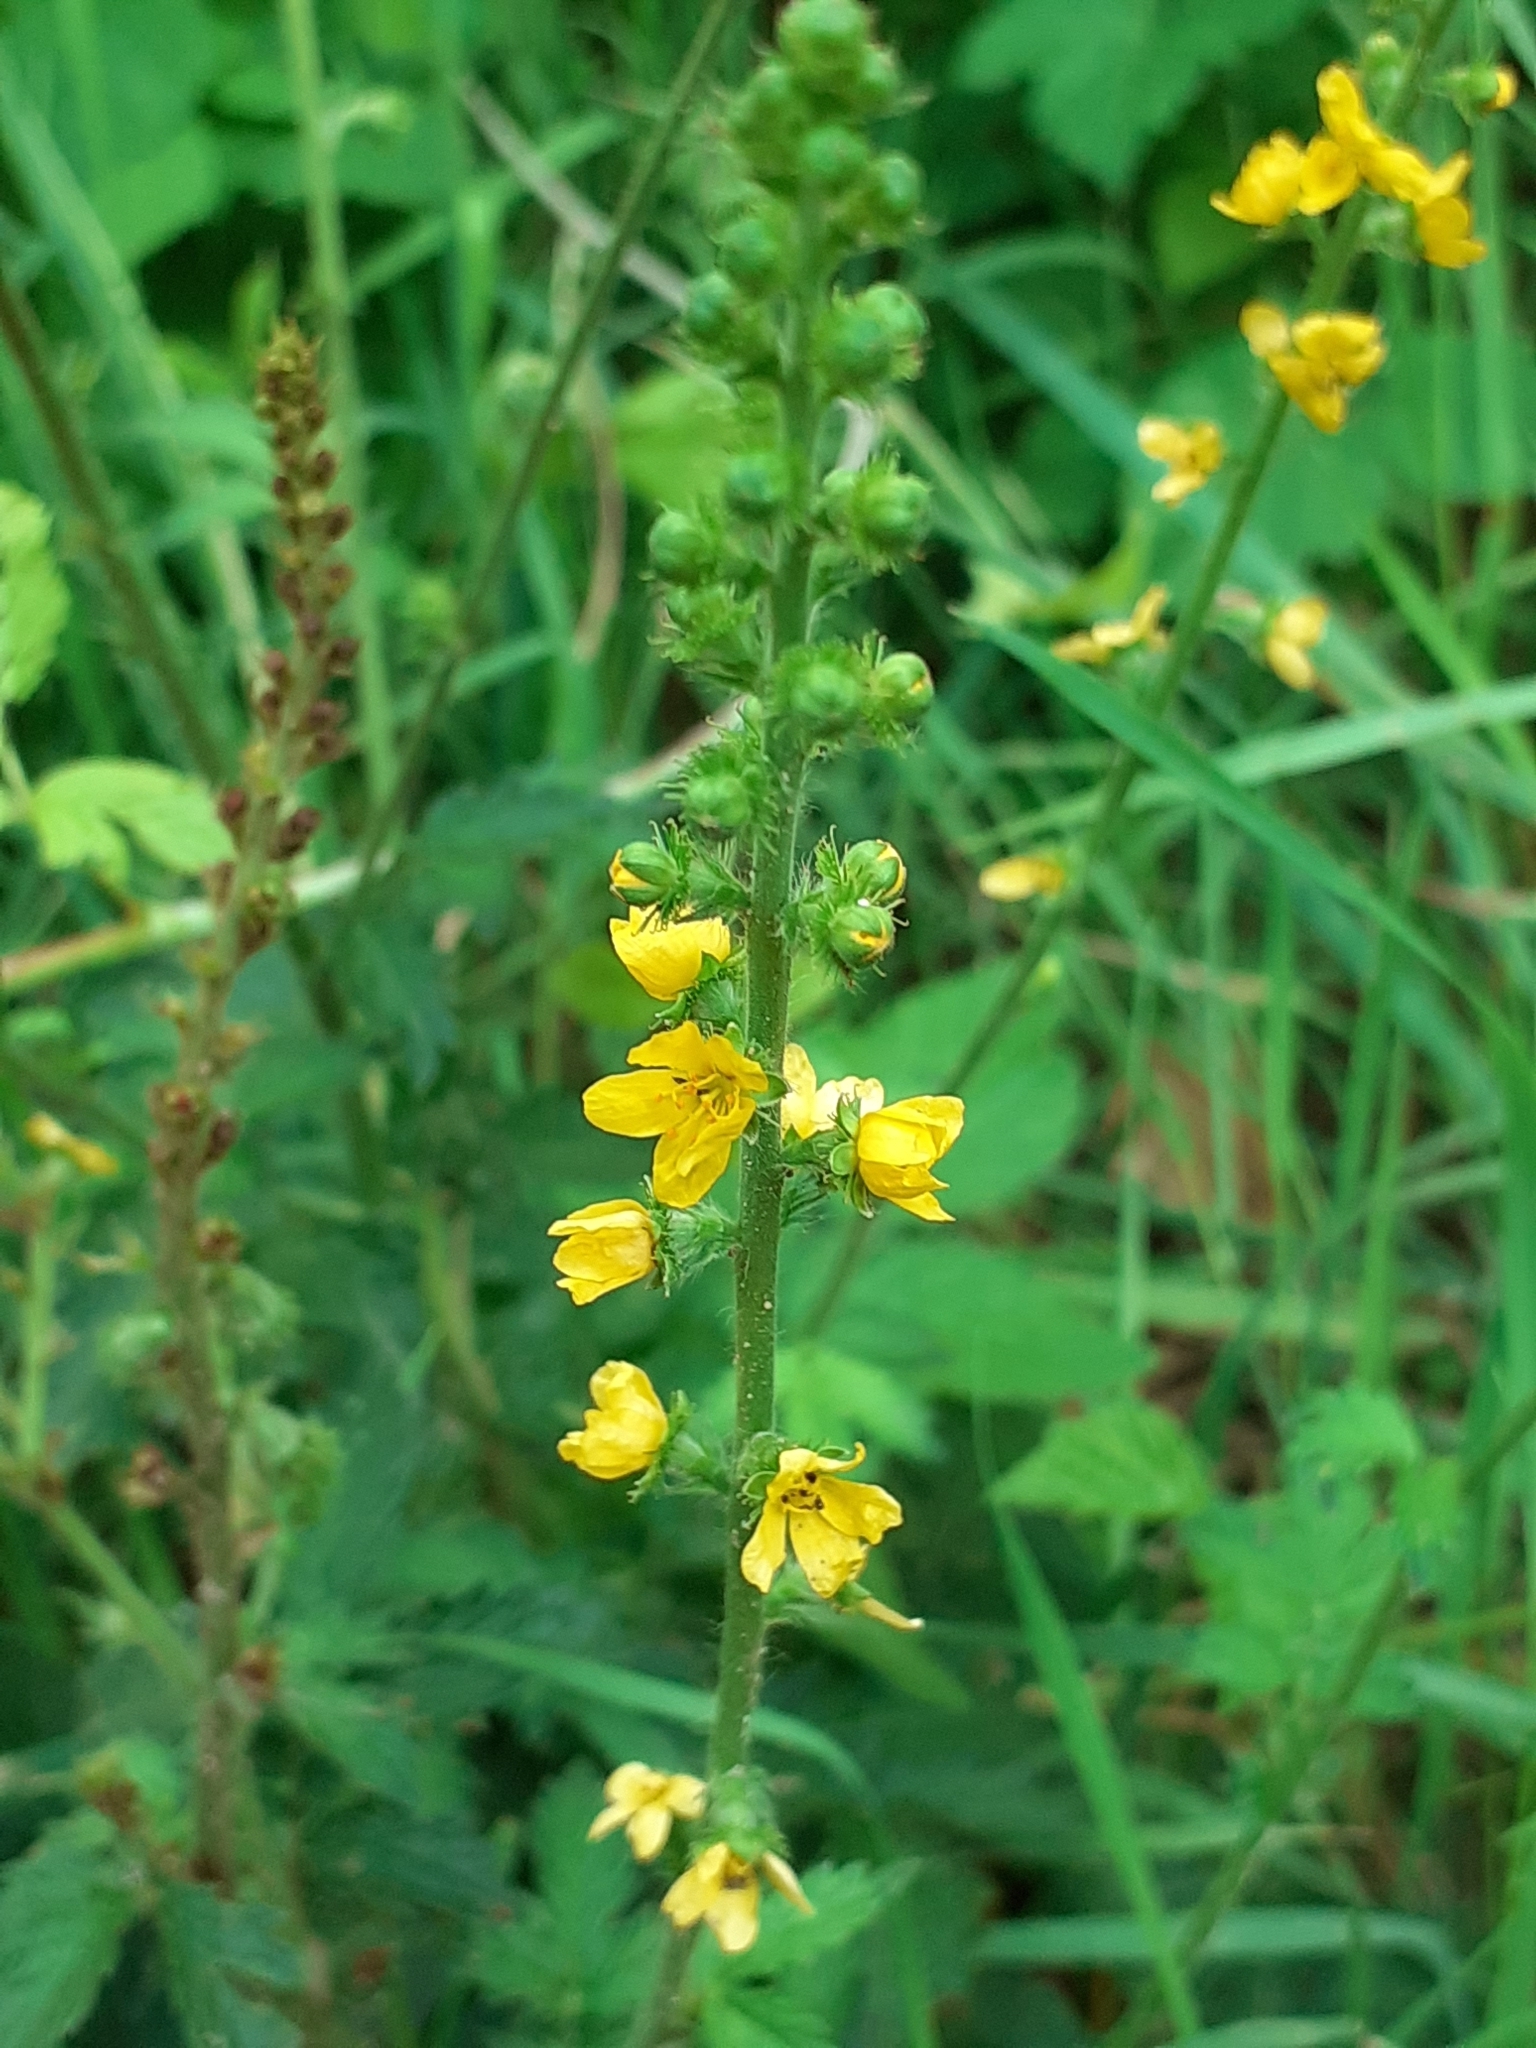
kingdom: Plantae
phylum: Tracheophyta
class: Magnoliopsida
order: Rosales
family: Rosaceae
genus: Agrimonia
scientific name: Agrimonia eupatoria
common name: Agrimony
